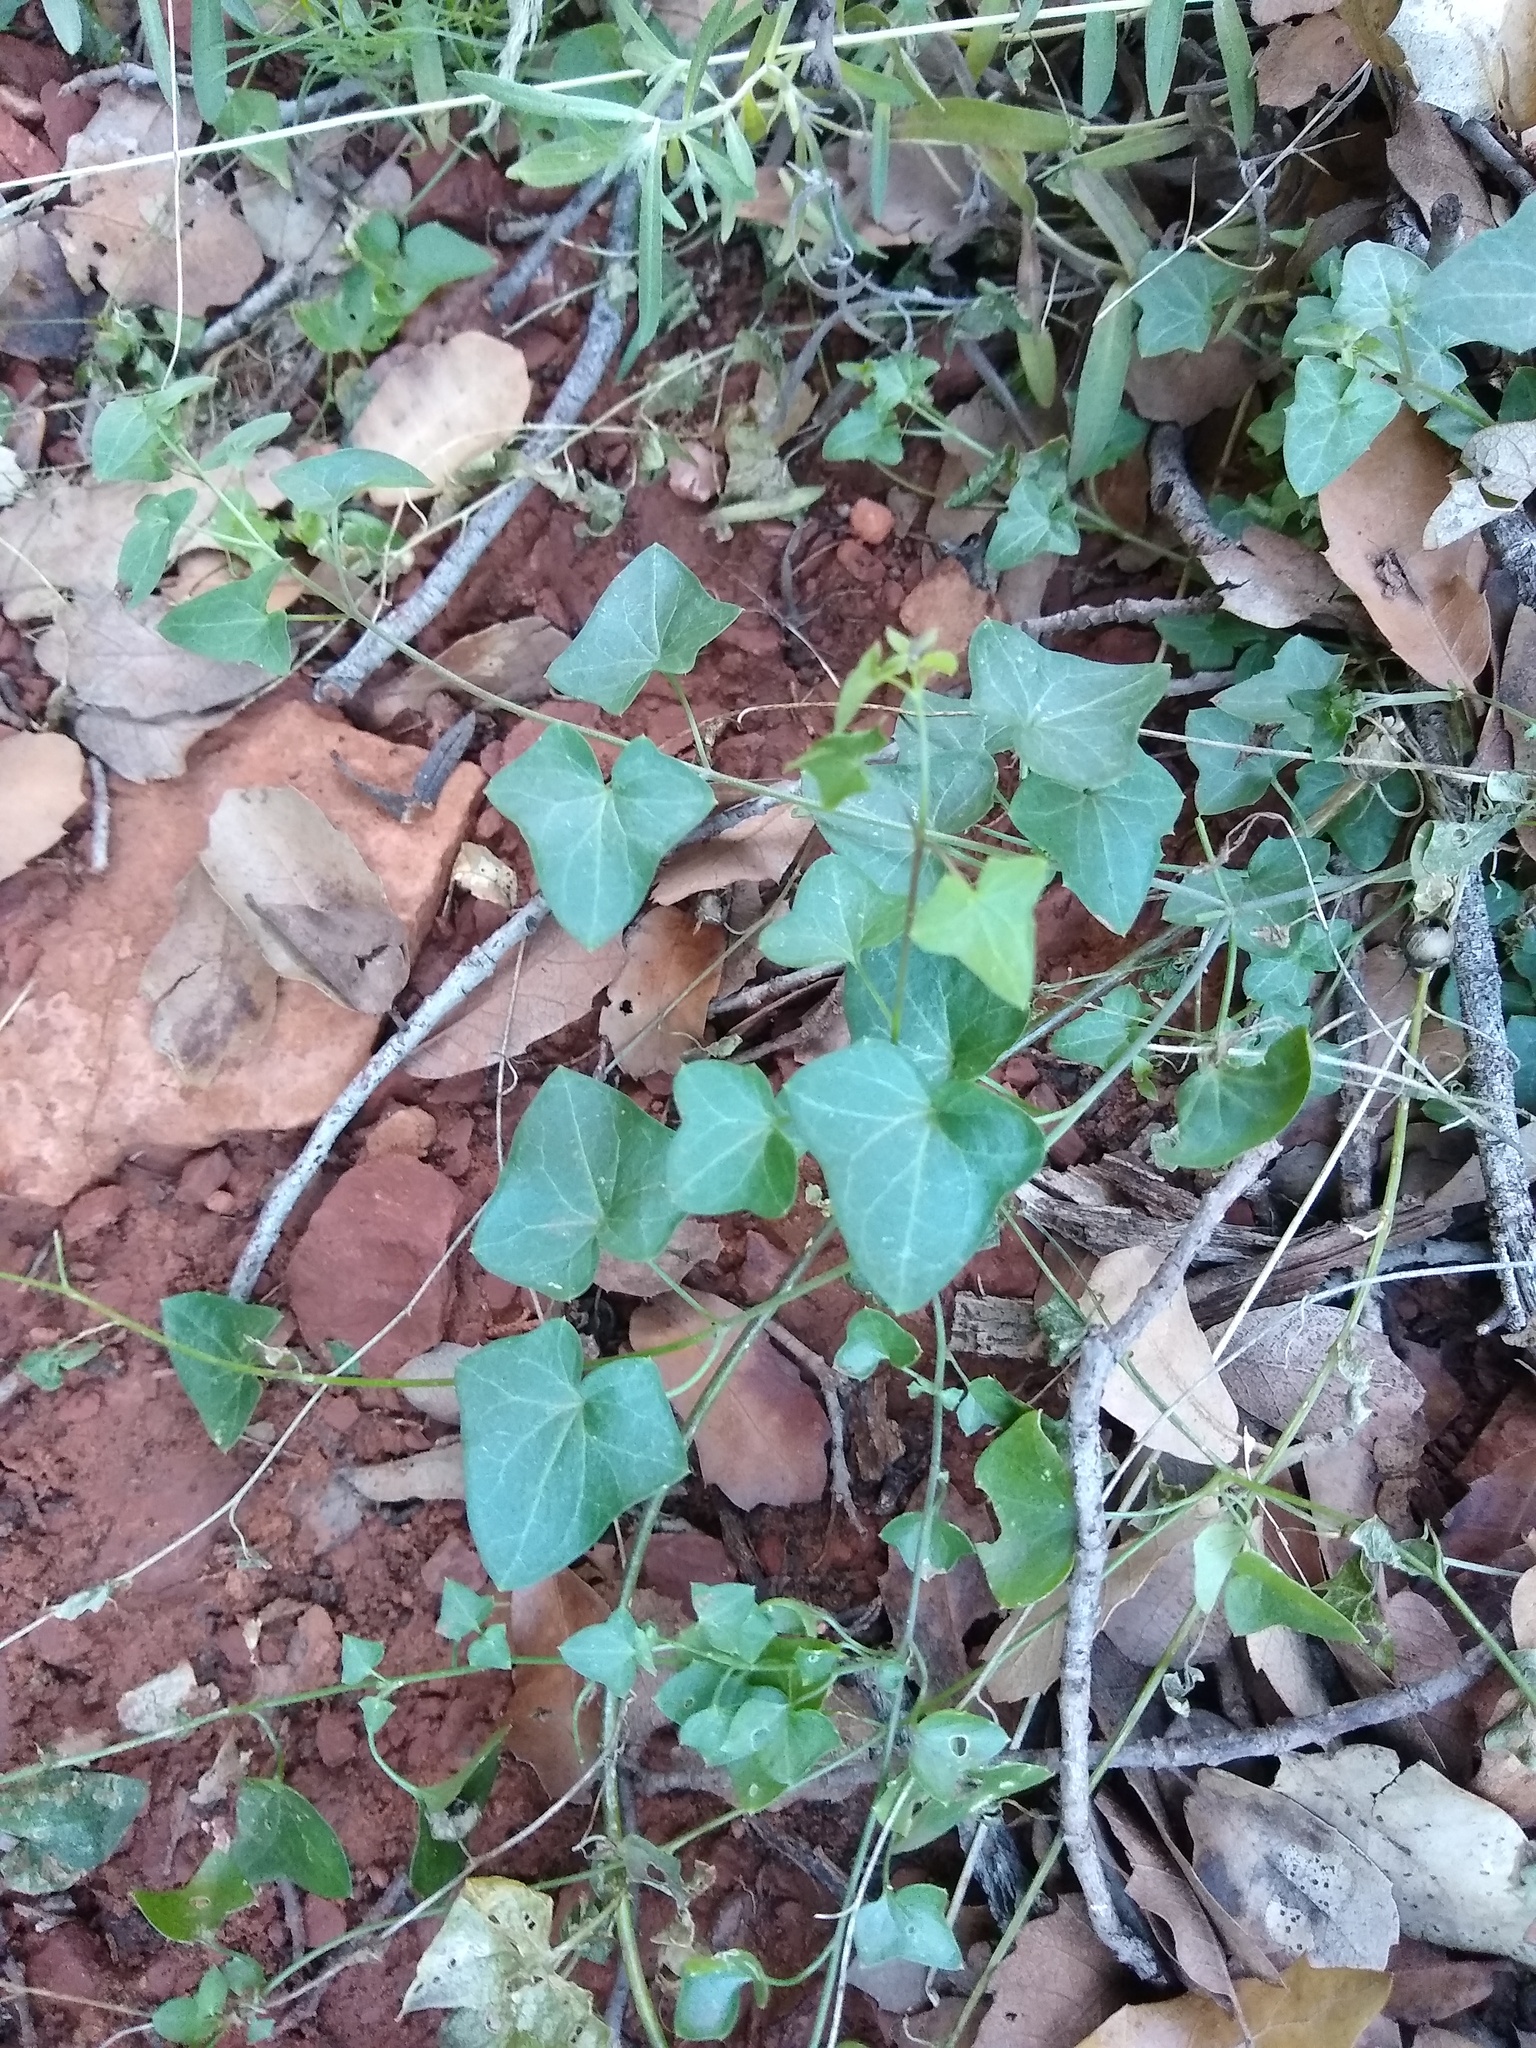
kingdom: Plantae
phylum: Tracheophyta
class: Magnoliopsida
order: Lamiales
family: Plantaginaceae
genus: Maurandella
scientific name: Maurandella antirrhiniflora
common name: Violet twining-snapdragon
